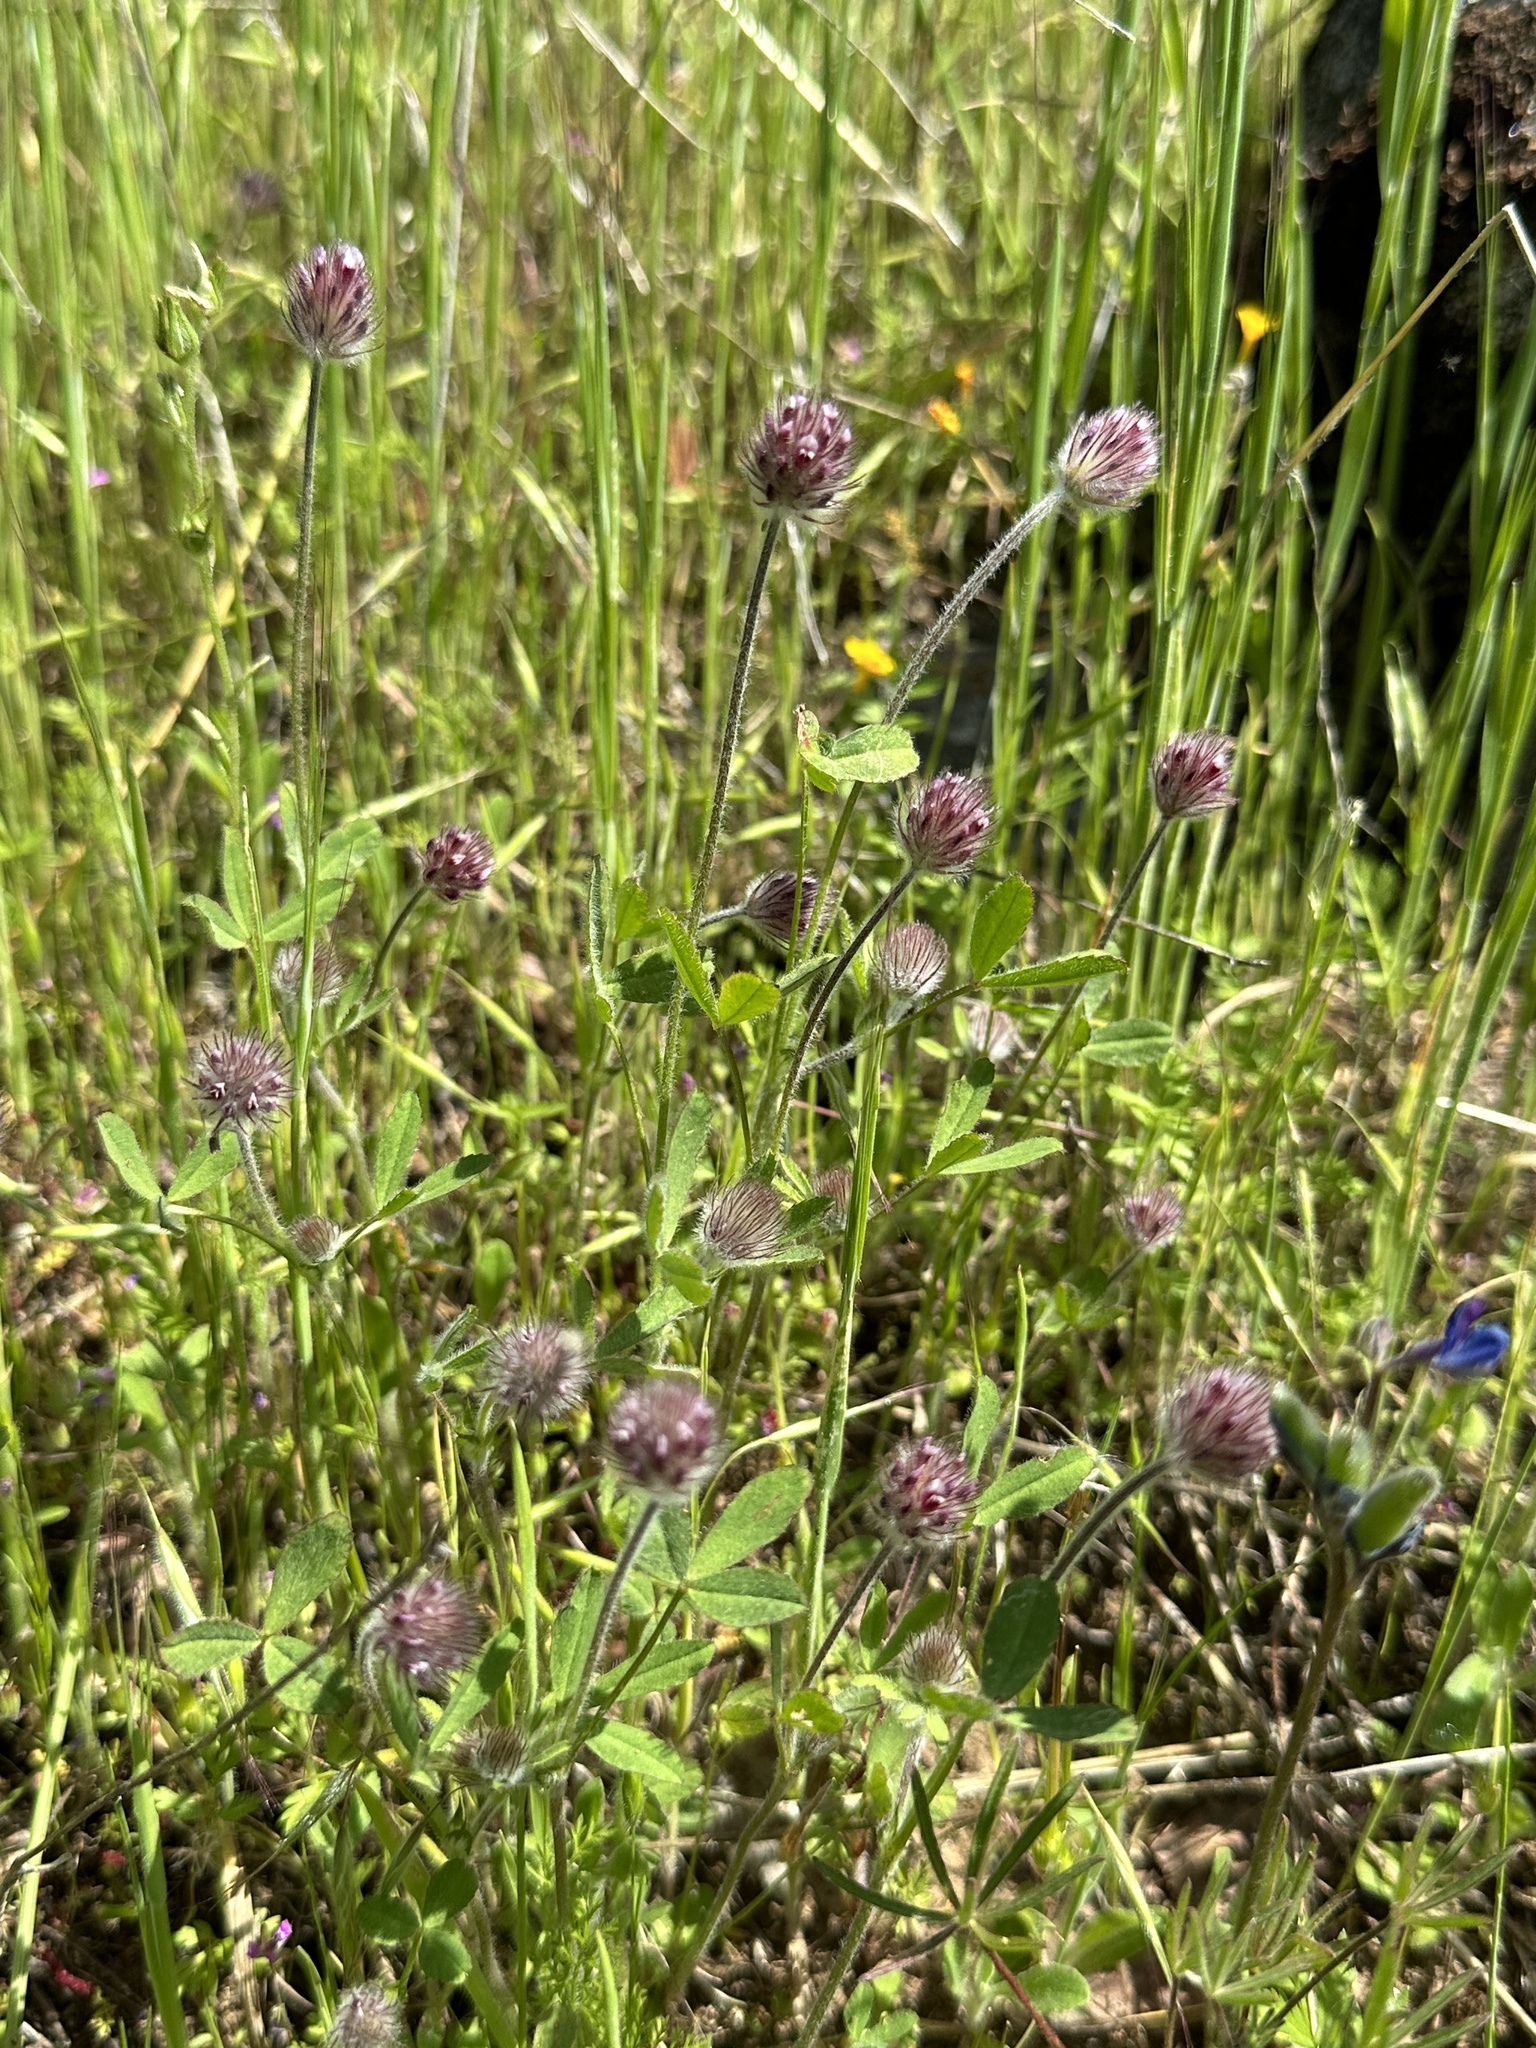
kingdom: Plantae
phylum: Tracheophyta
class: Magnoliopsida
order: Fabales
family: Fabaceae
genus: Trifolium
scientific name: Trifolium albopurpureum
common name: Rancheria clover
